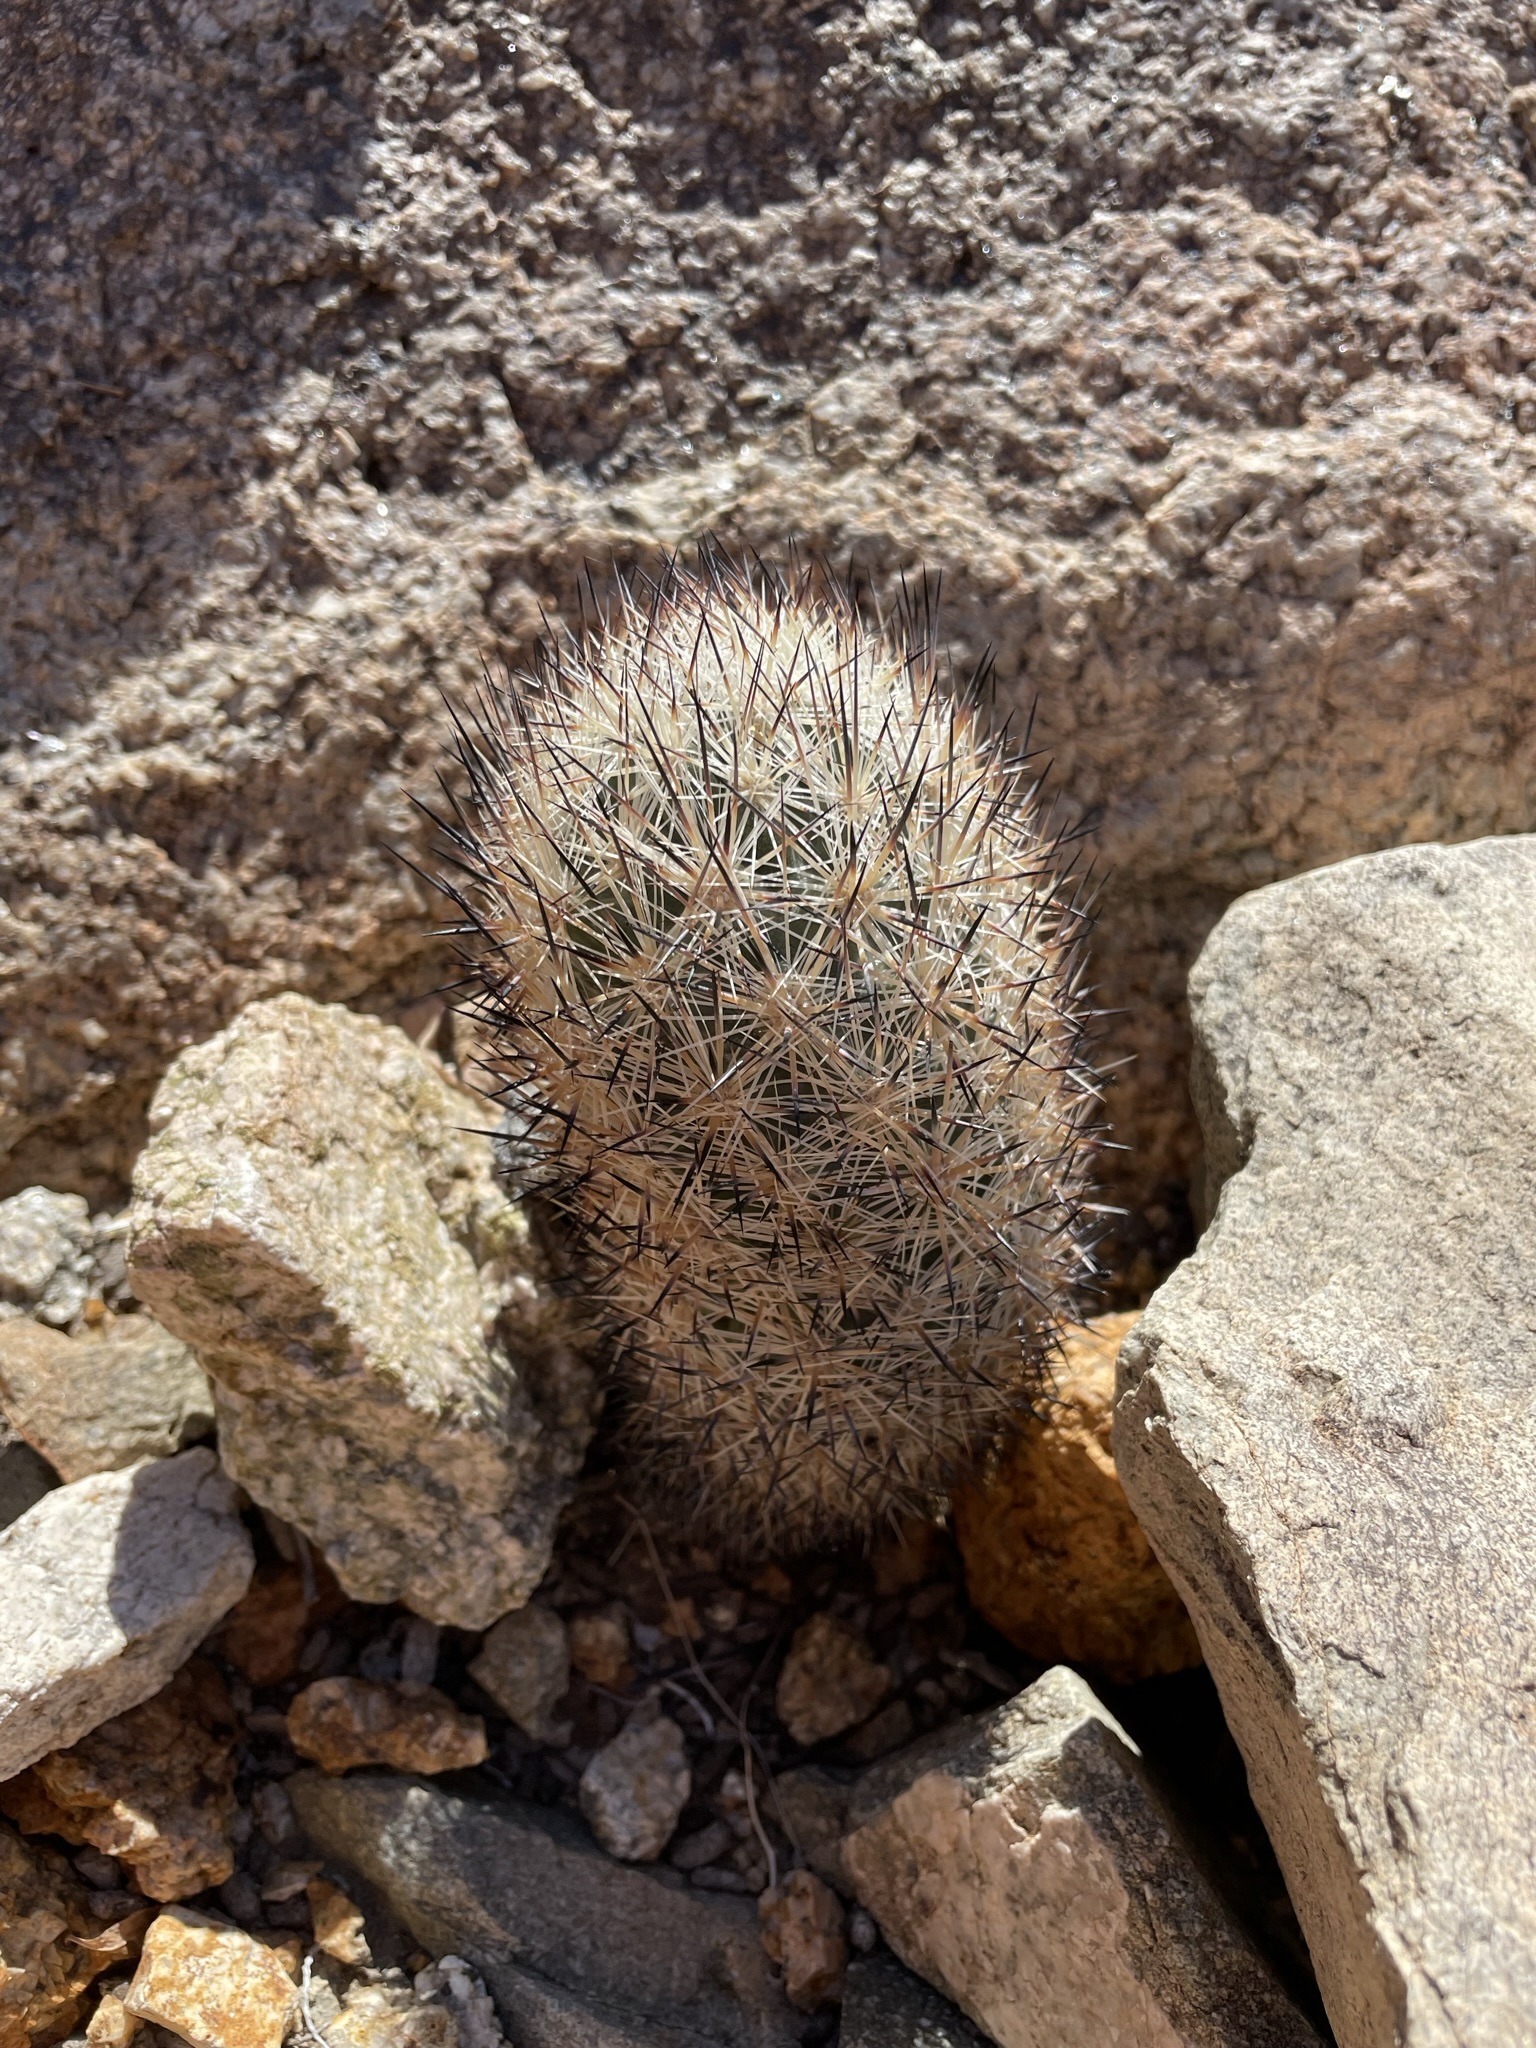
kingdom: Plantae
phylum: Tracheophyta
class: Magnoliopsida
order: Caryophyllales
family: Cactaceae
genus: Pelecyphora
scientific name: Pelecyphora alversonii
